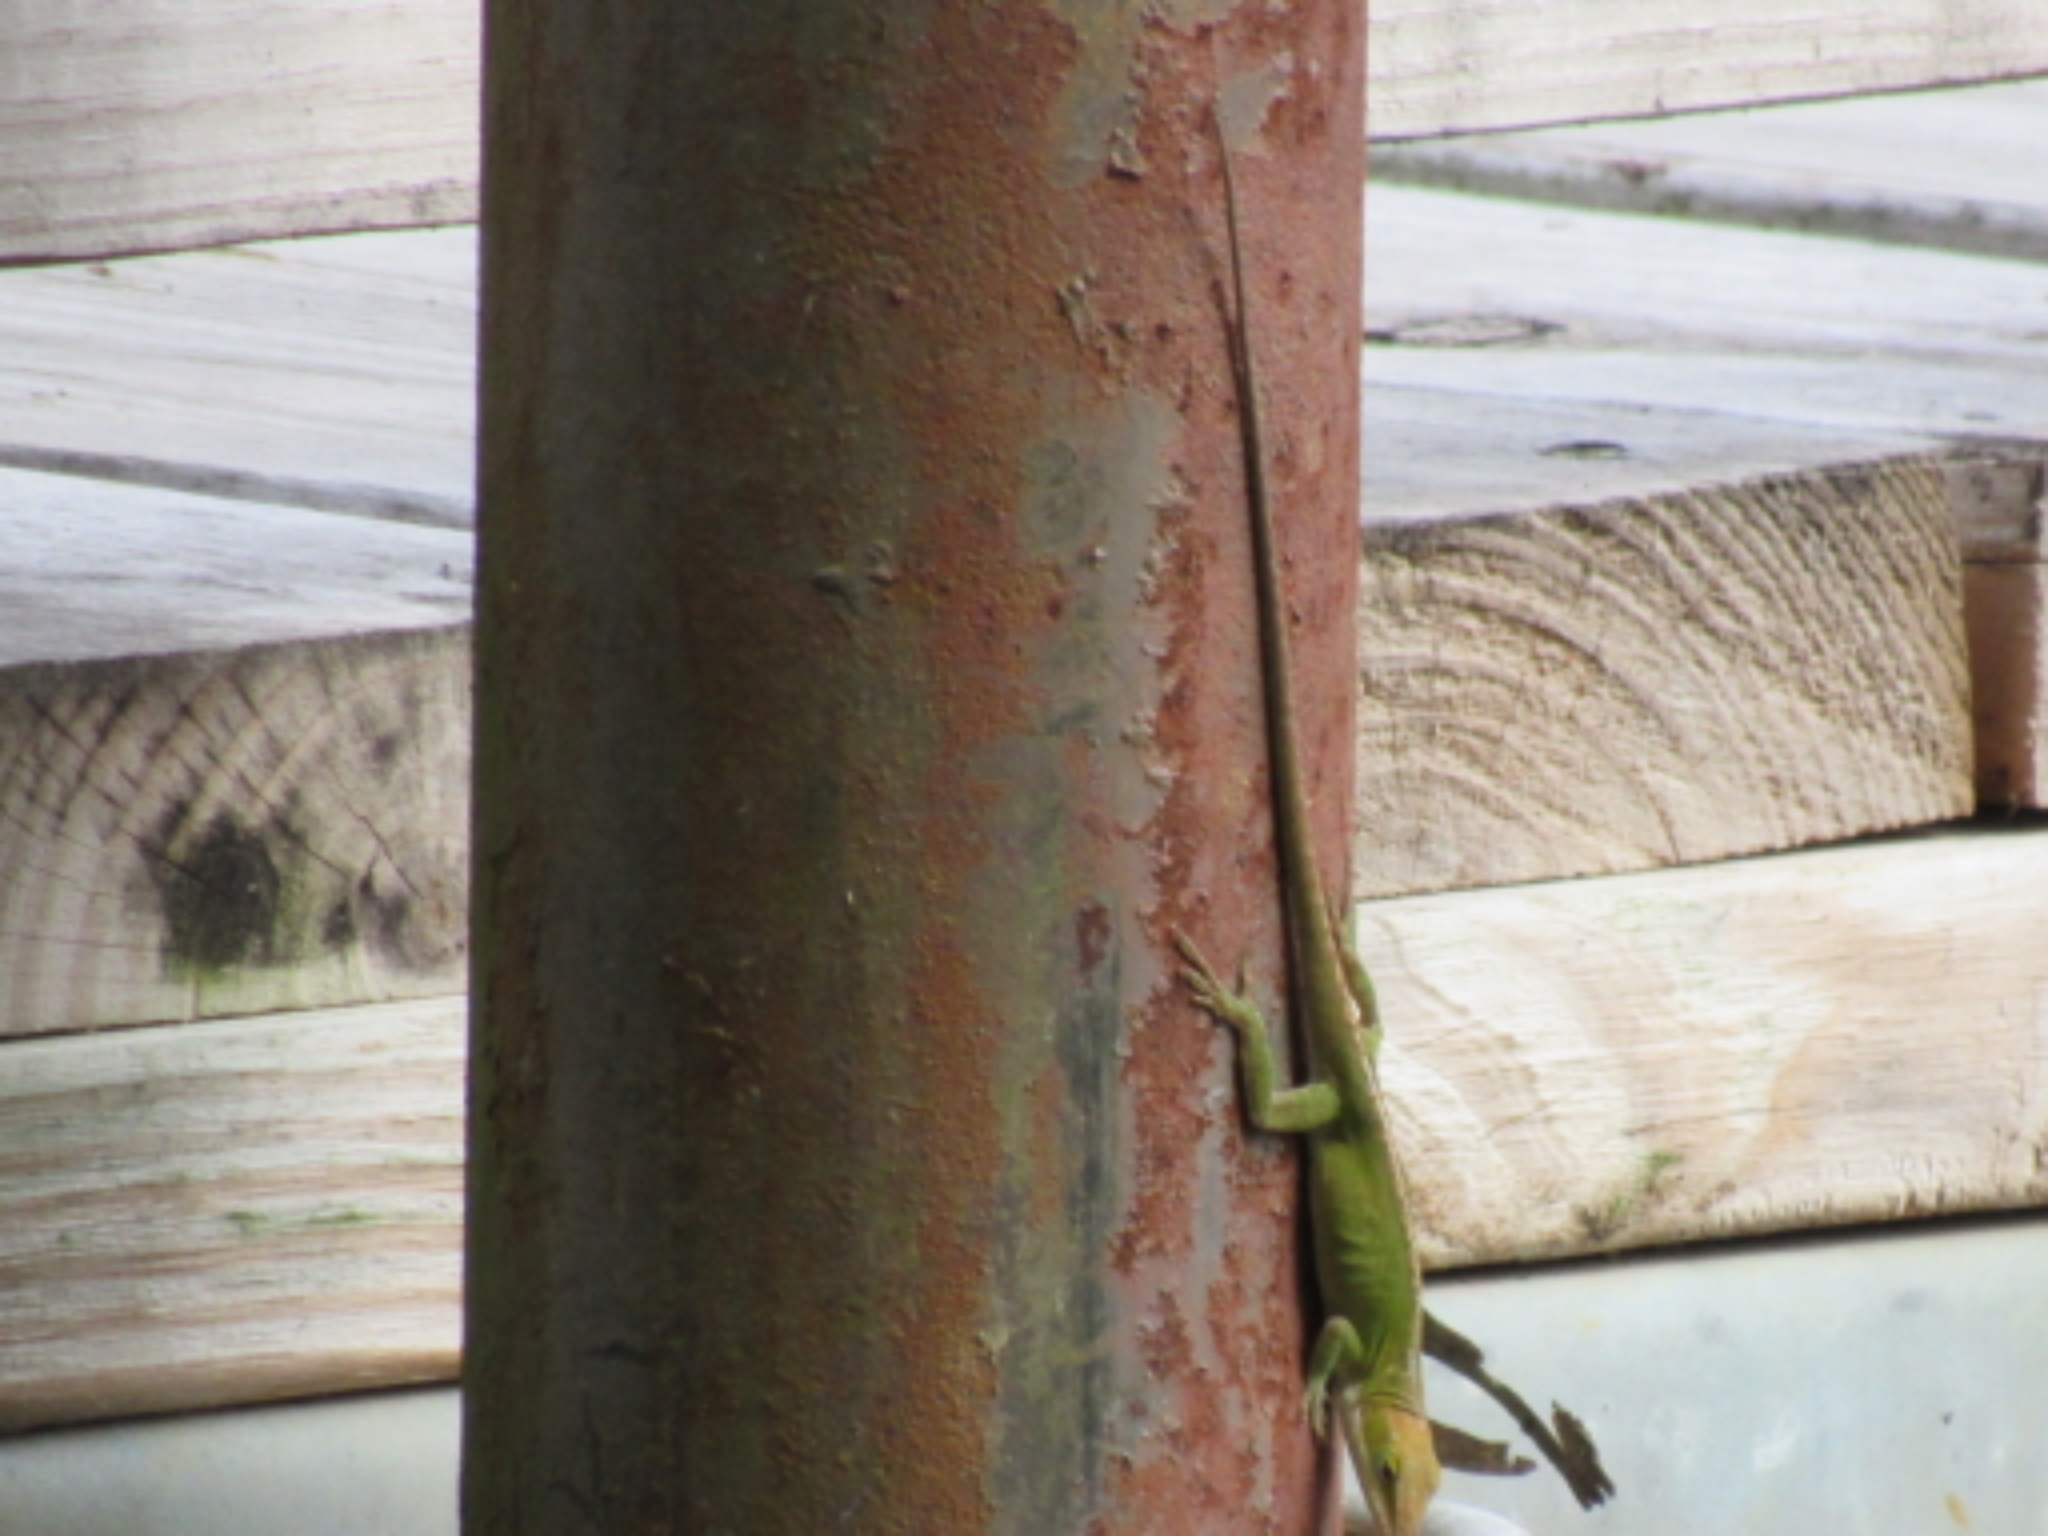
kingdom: Animalia
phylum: Chordata
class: Squamata
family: Dactyloidae
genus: Anolis
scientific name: Anolis carolinensis
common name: Green anole
